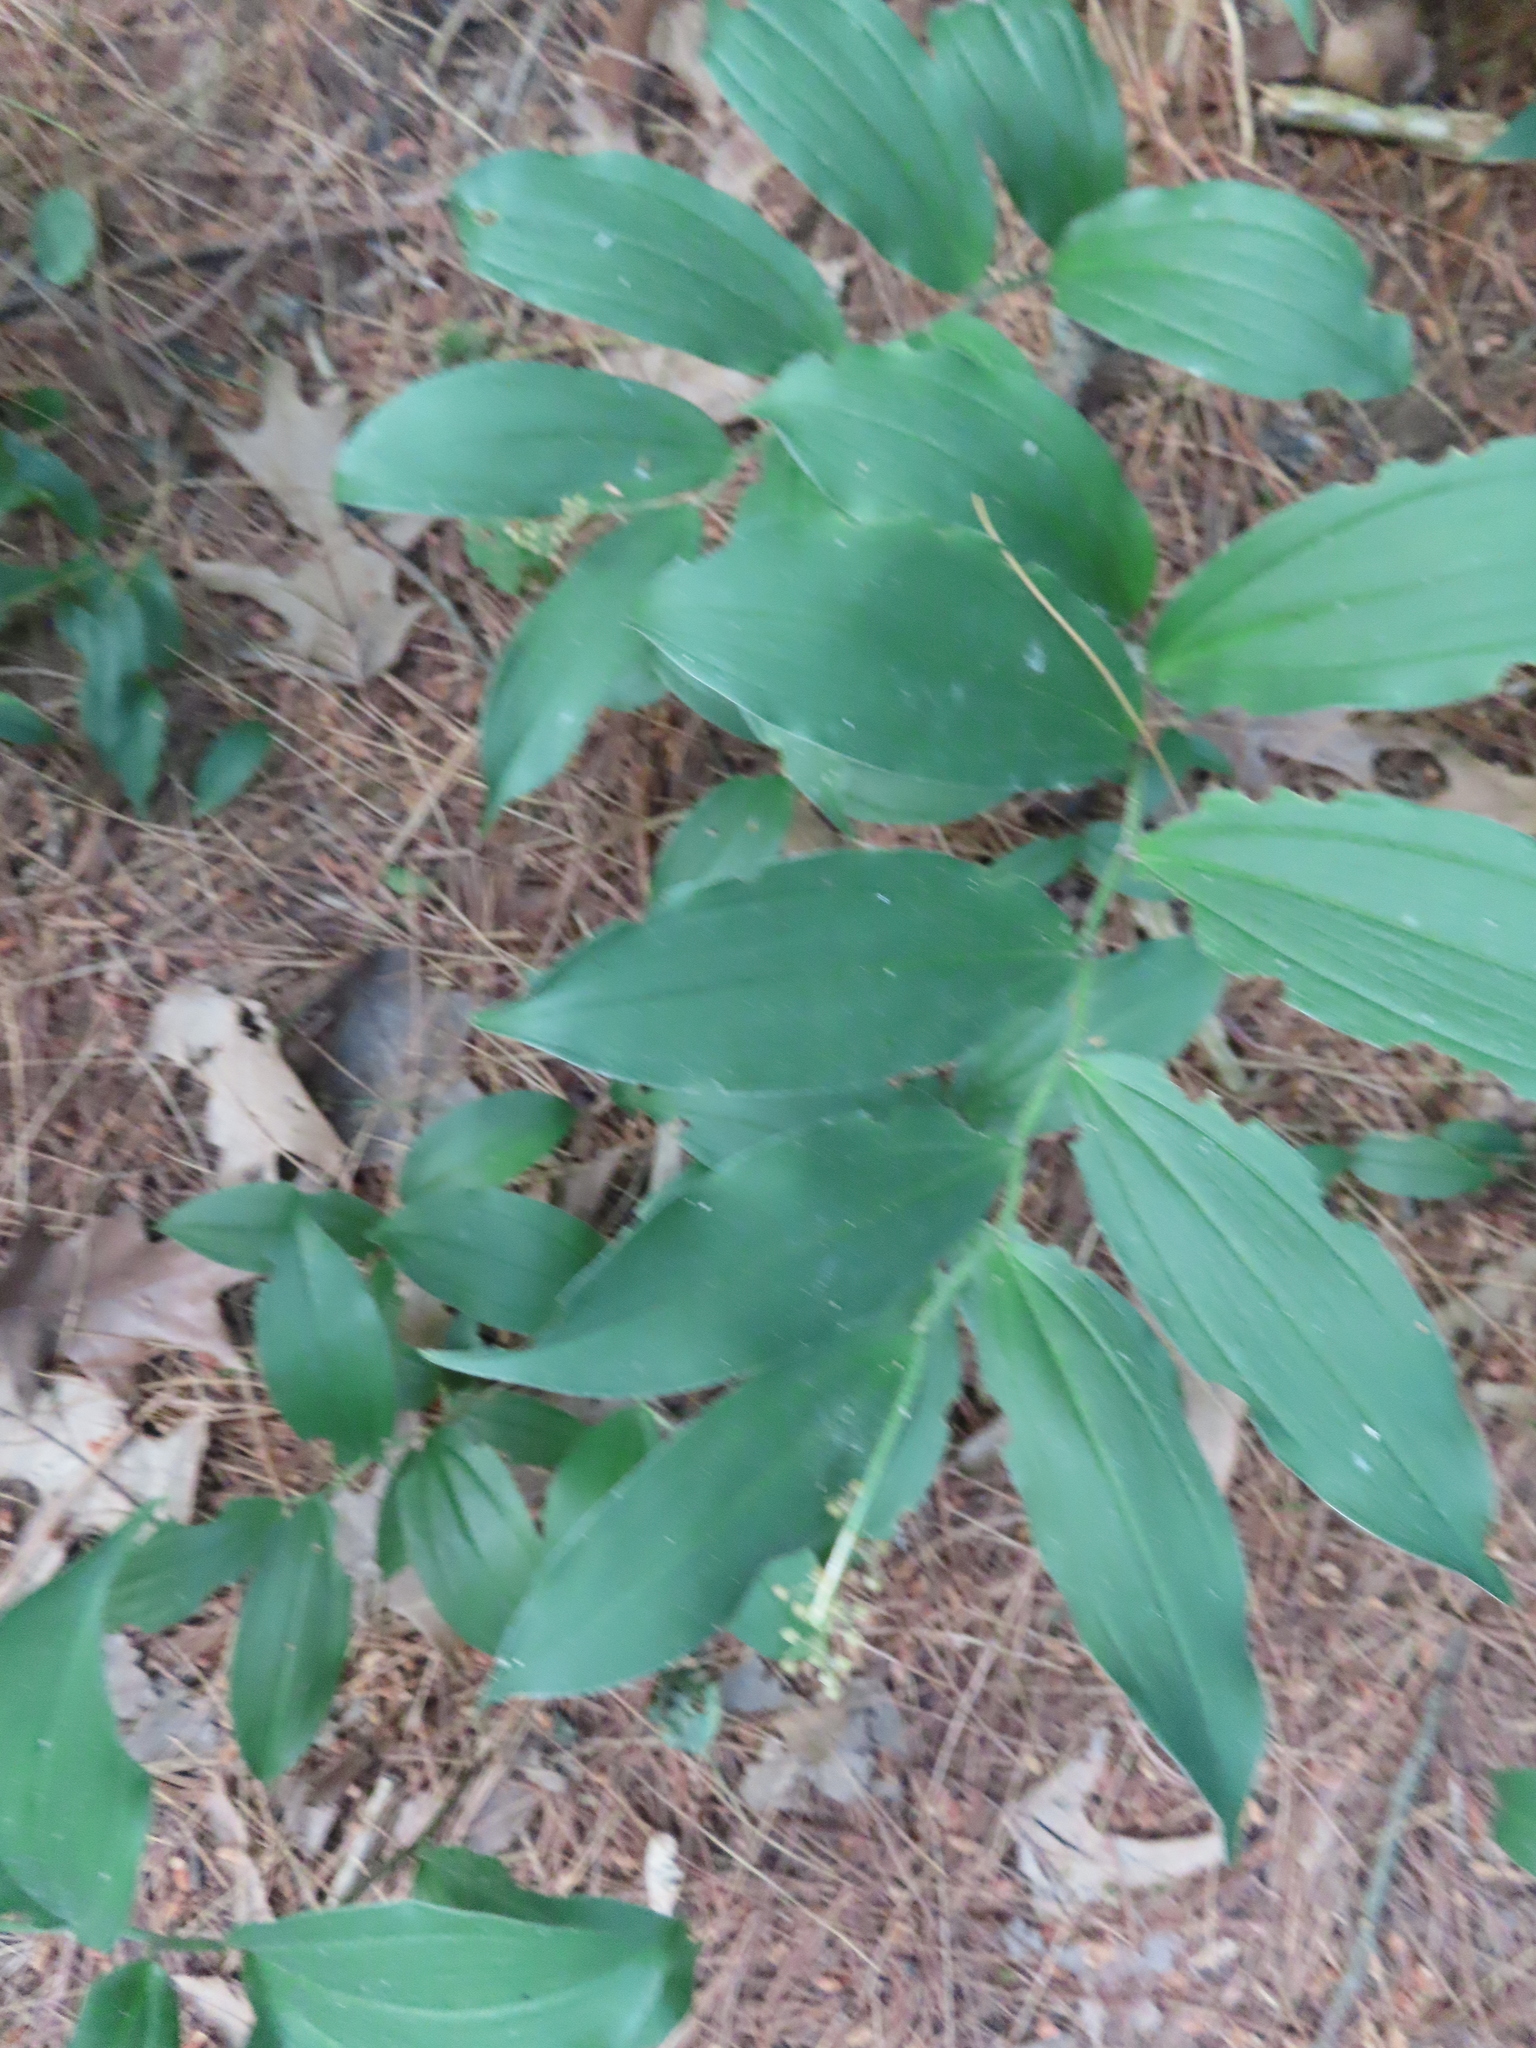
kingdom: Plantae
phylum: Tracheophyta
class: Liliopsida
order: Asparagales
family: Asparagaceae
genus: Maianthemum
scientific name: Maianthemum racemosum
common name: False spikenard
